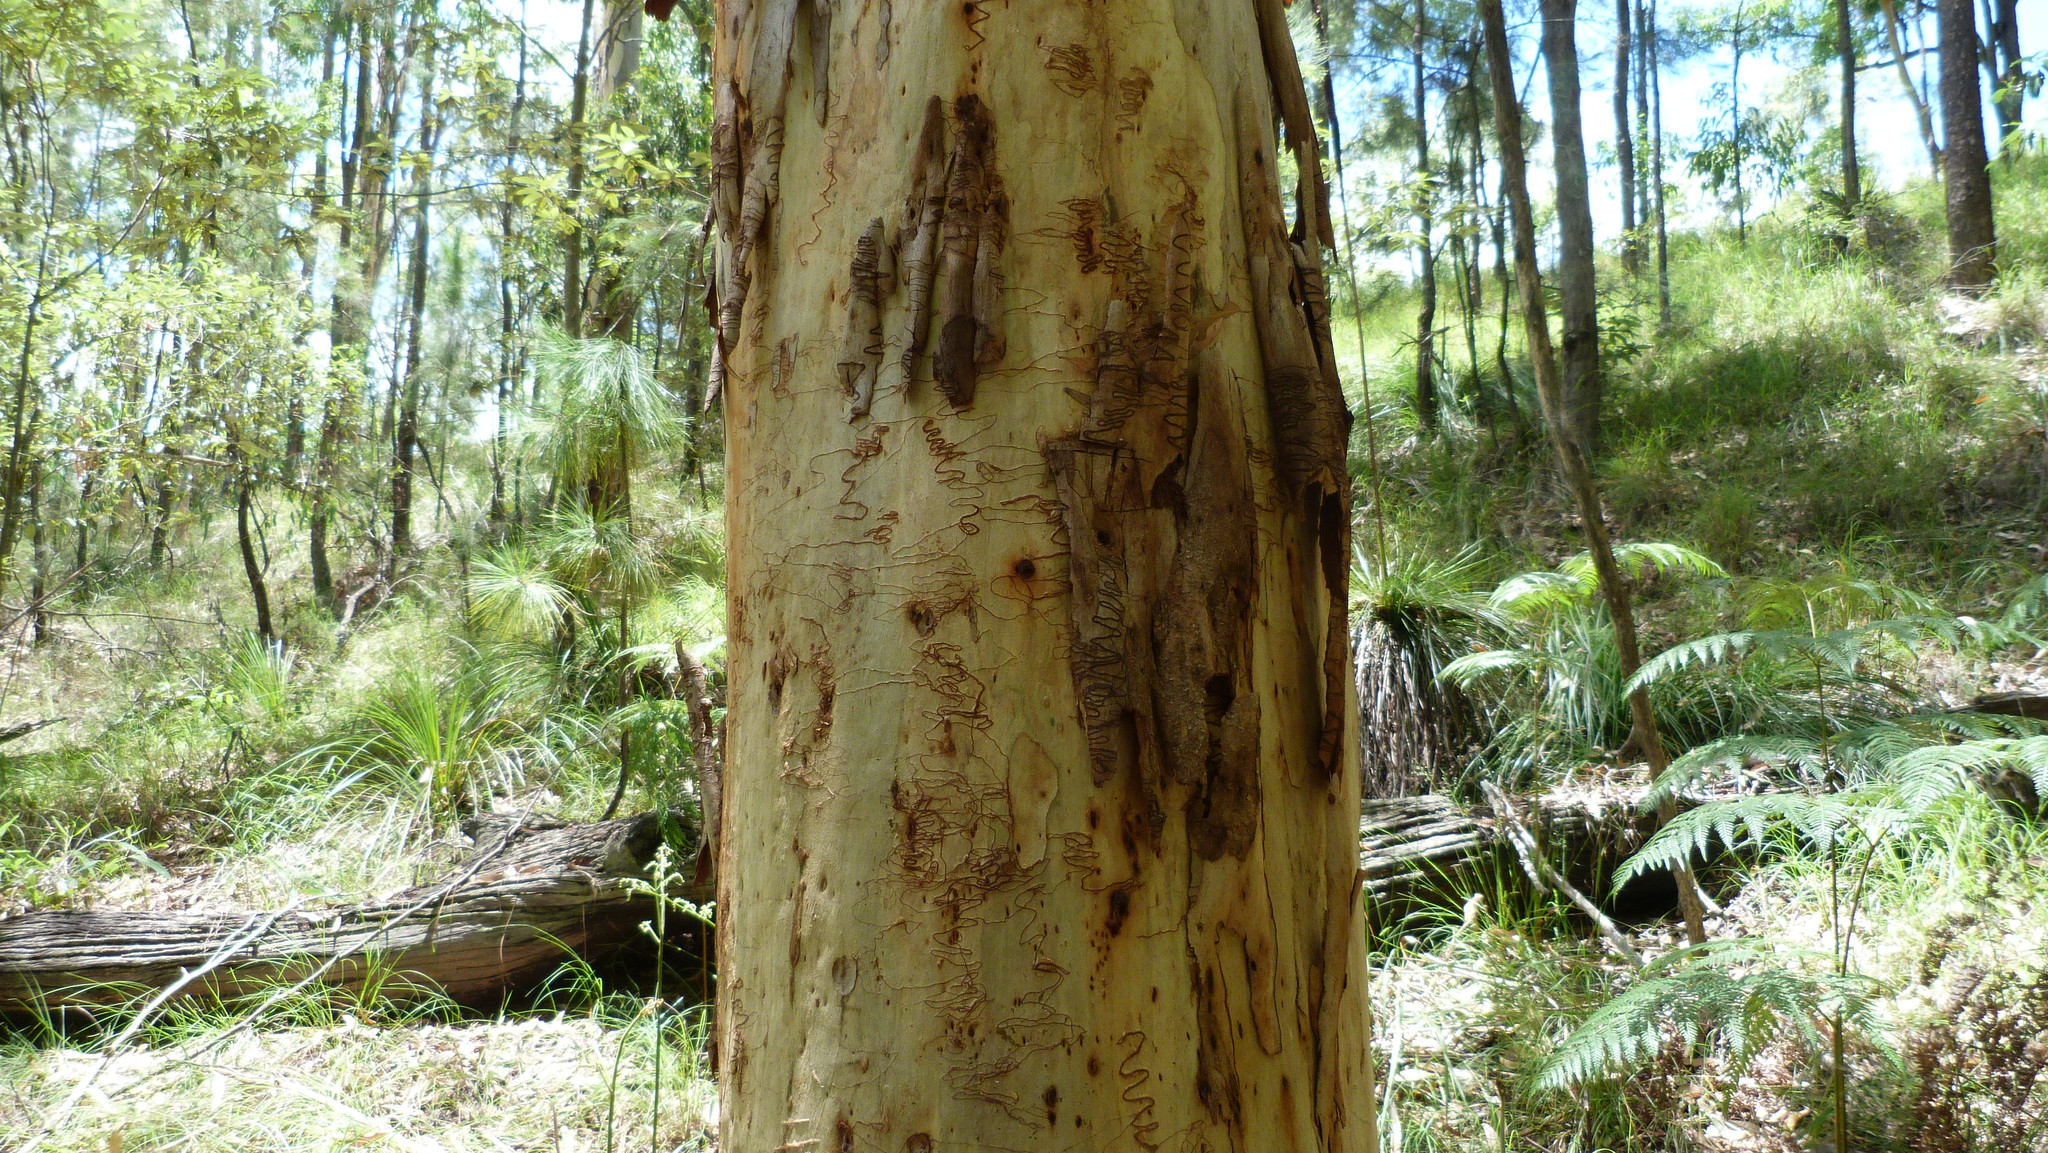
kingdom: Plantae
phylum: Tracheophyta
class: Magnoliopsida
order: Myrtales
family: Myrtaceae
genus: Eucalyptus
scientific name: Eucalyptus racemosa
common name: Scribbly gum
